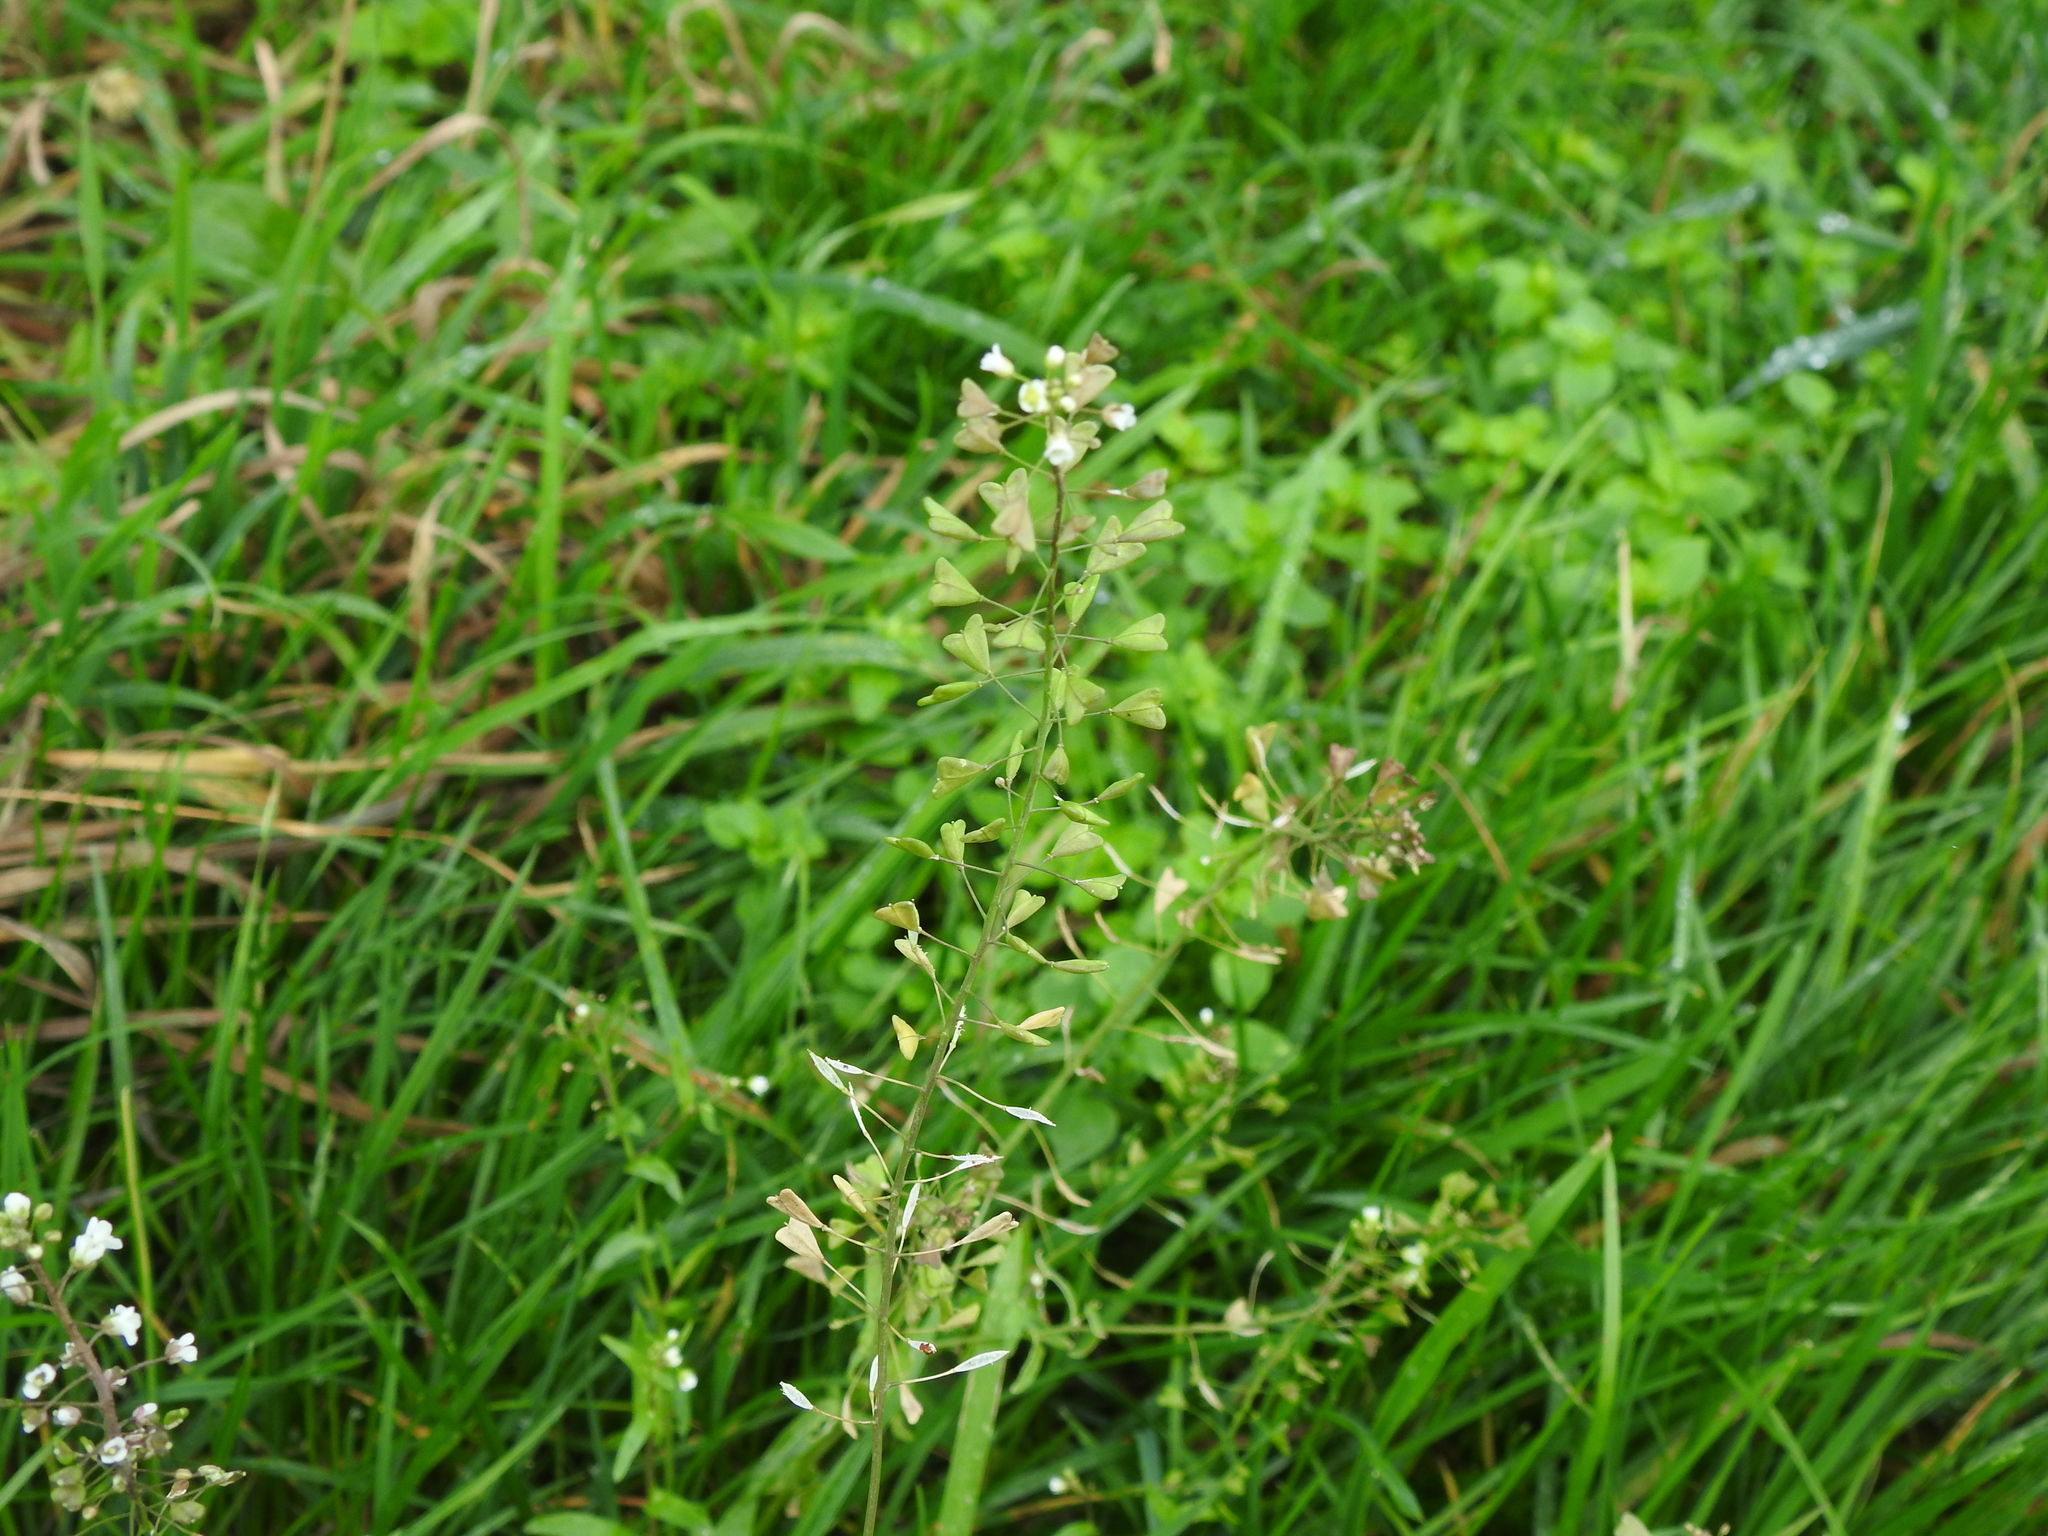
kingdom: Plantae
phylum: Tracheophyta
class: Magnoliopsida
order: Brassicales
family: Brassicaceae
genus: Capsella
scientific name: Capsella bursa-pastoris
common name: Shepherd's purse
